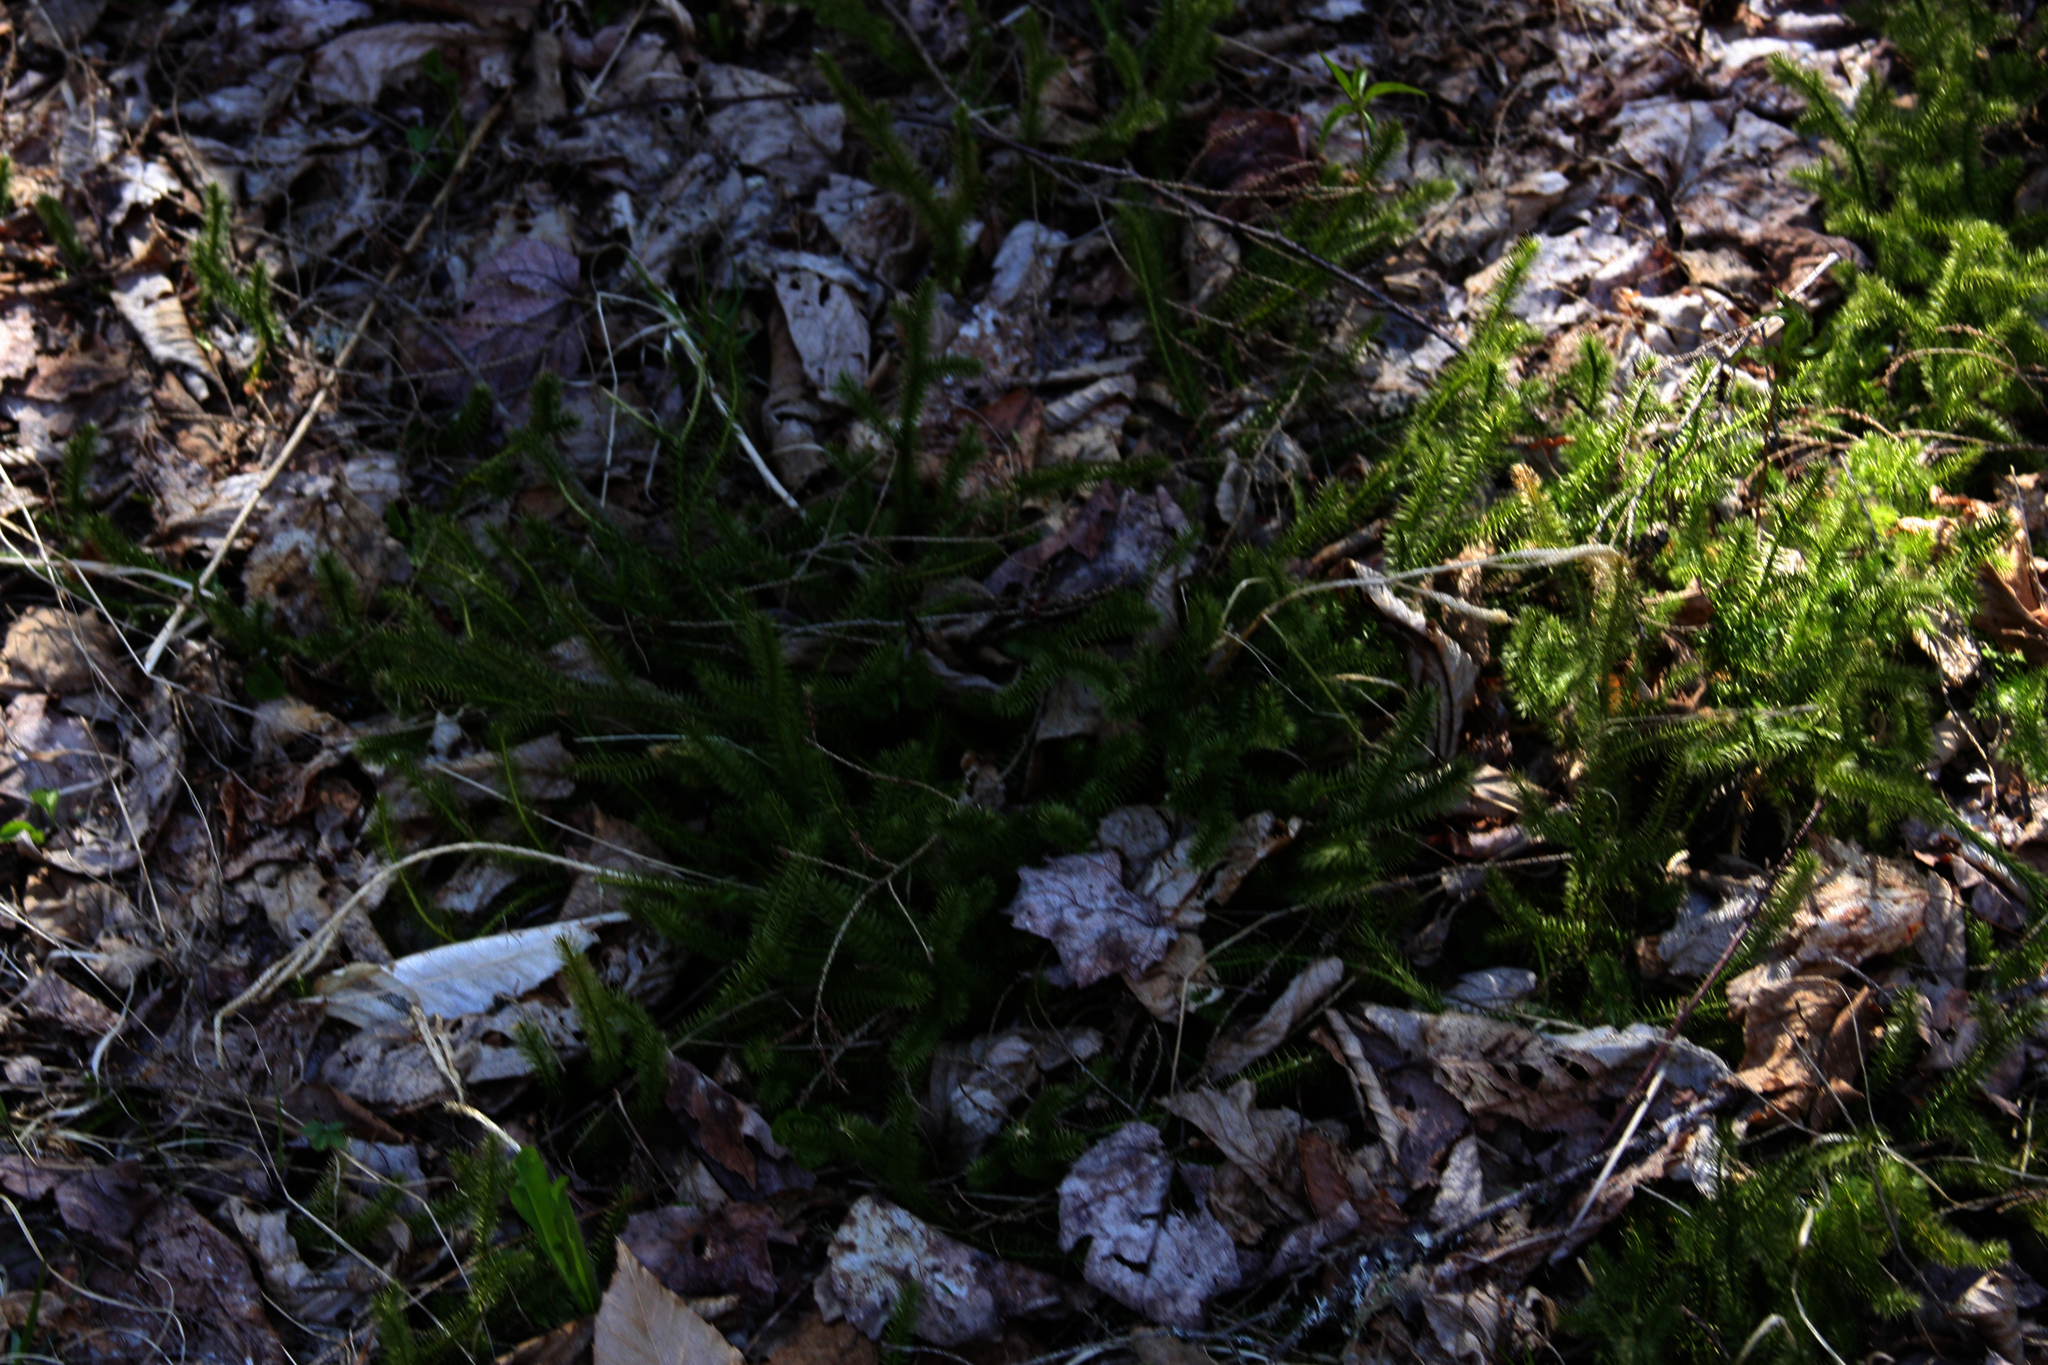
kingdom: Plantae
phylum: Tracheophyta
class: Lycopodiopsida
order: Lycopodiales
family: Lycopodiaceae
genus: Lycopodium
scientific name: Lycopodium clavatum
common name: Stag's-horn clubmoss
